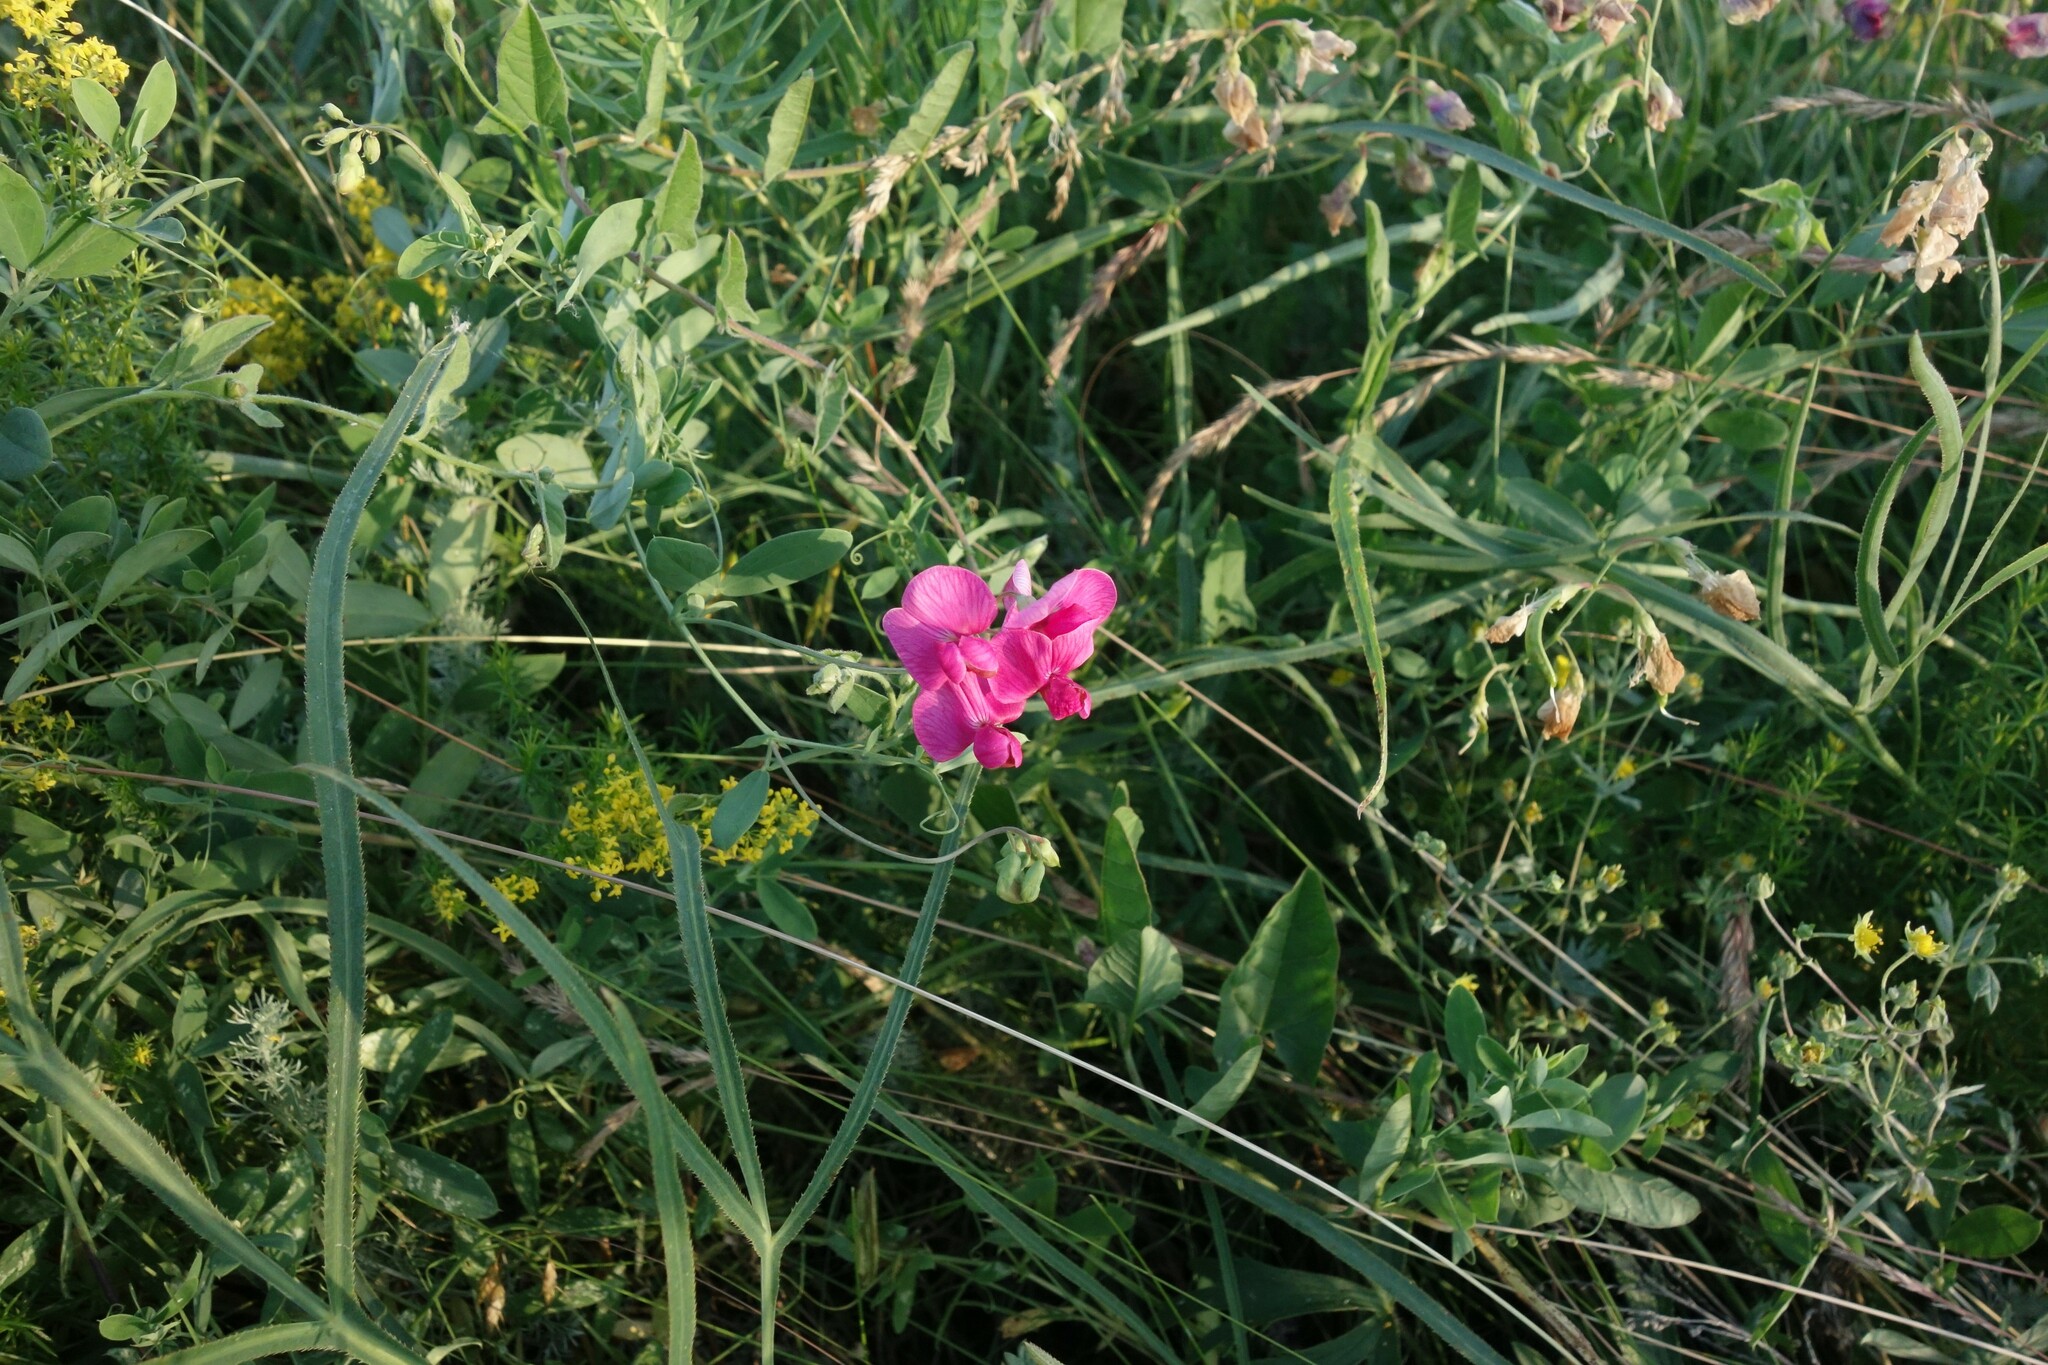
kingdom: Plantae
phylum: Tracheophyta
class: Magnoliopsida
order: Fabales
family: Fabaceae
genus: Lathyrus
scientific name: Lathyrus tuberosus
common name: Tuberous pea
